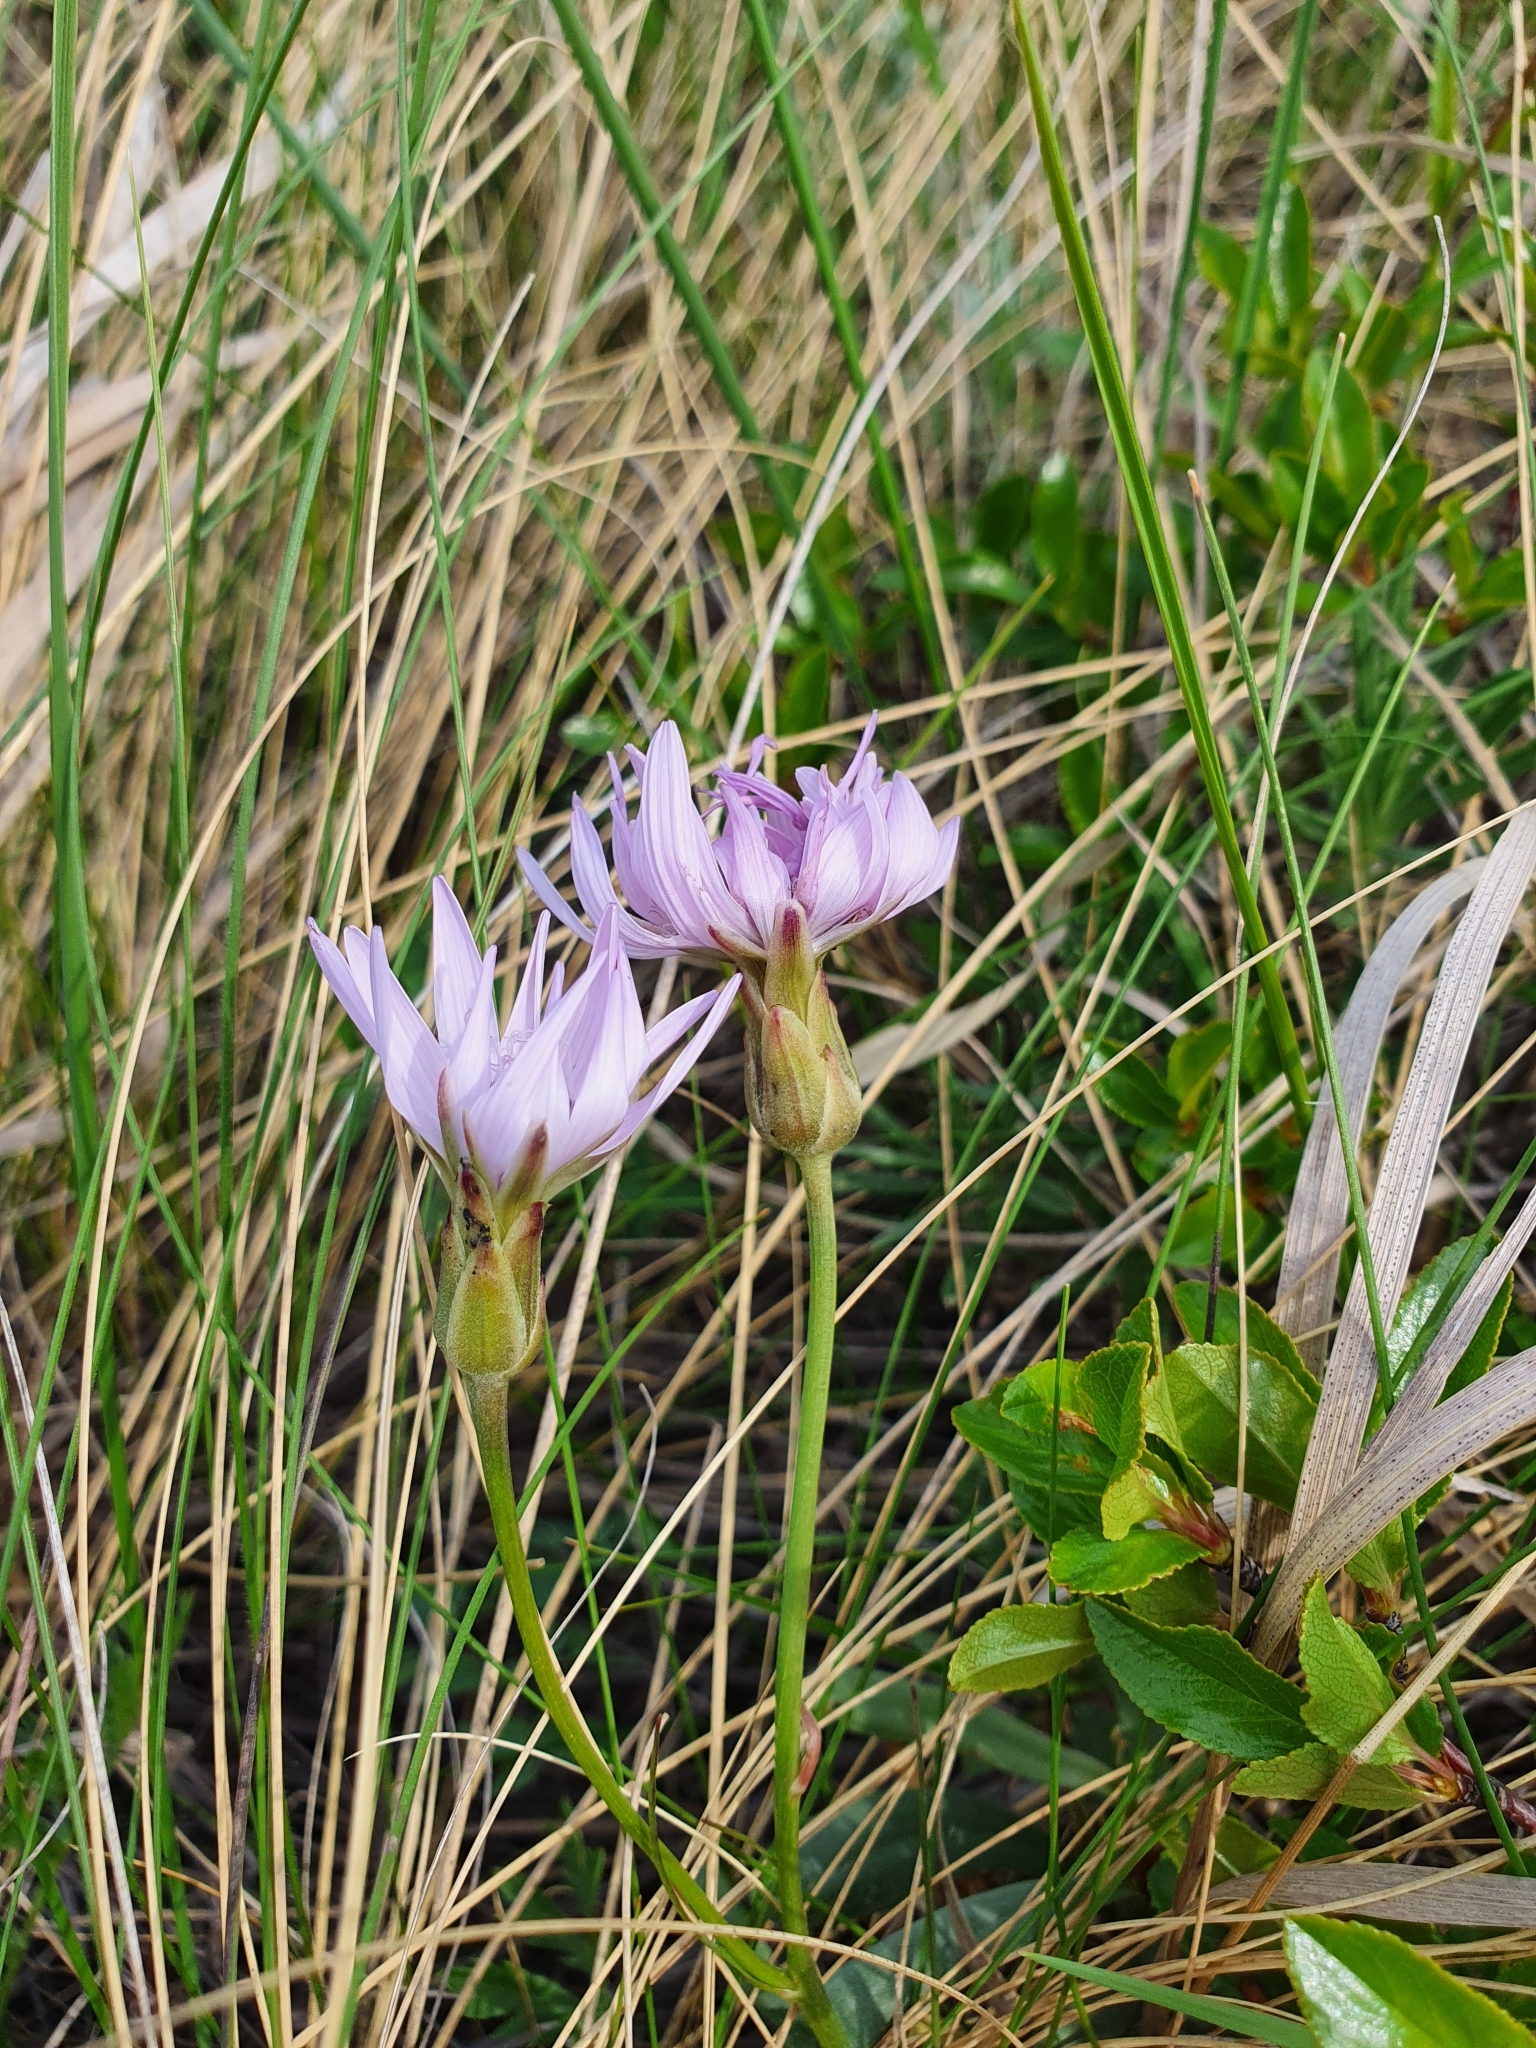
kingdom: Plantae
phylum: Tracheophyta
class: Magnoliopsida
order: Asterales
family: Asteraceae
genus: Scorzonera
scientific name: Scorzonera purpurea
